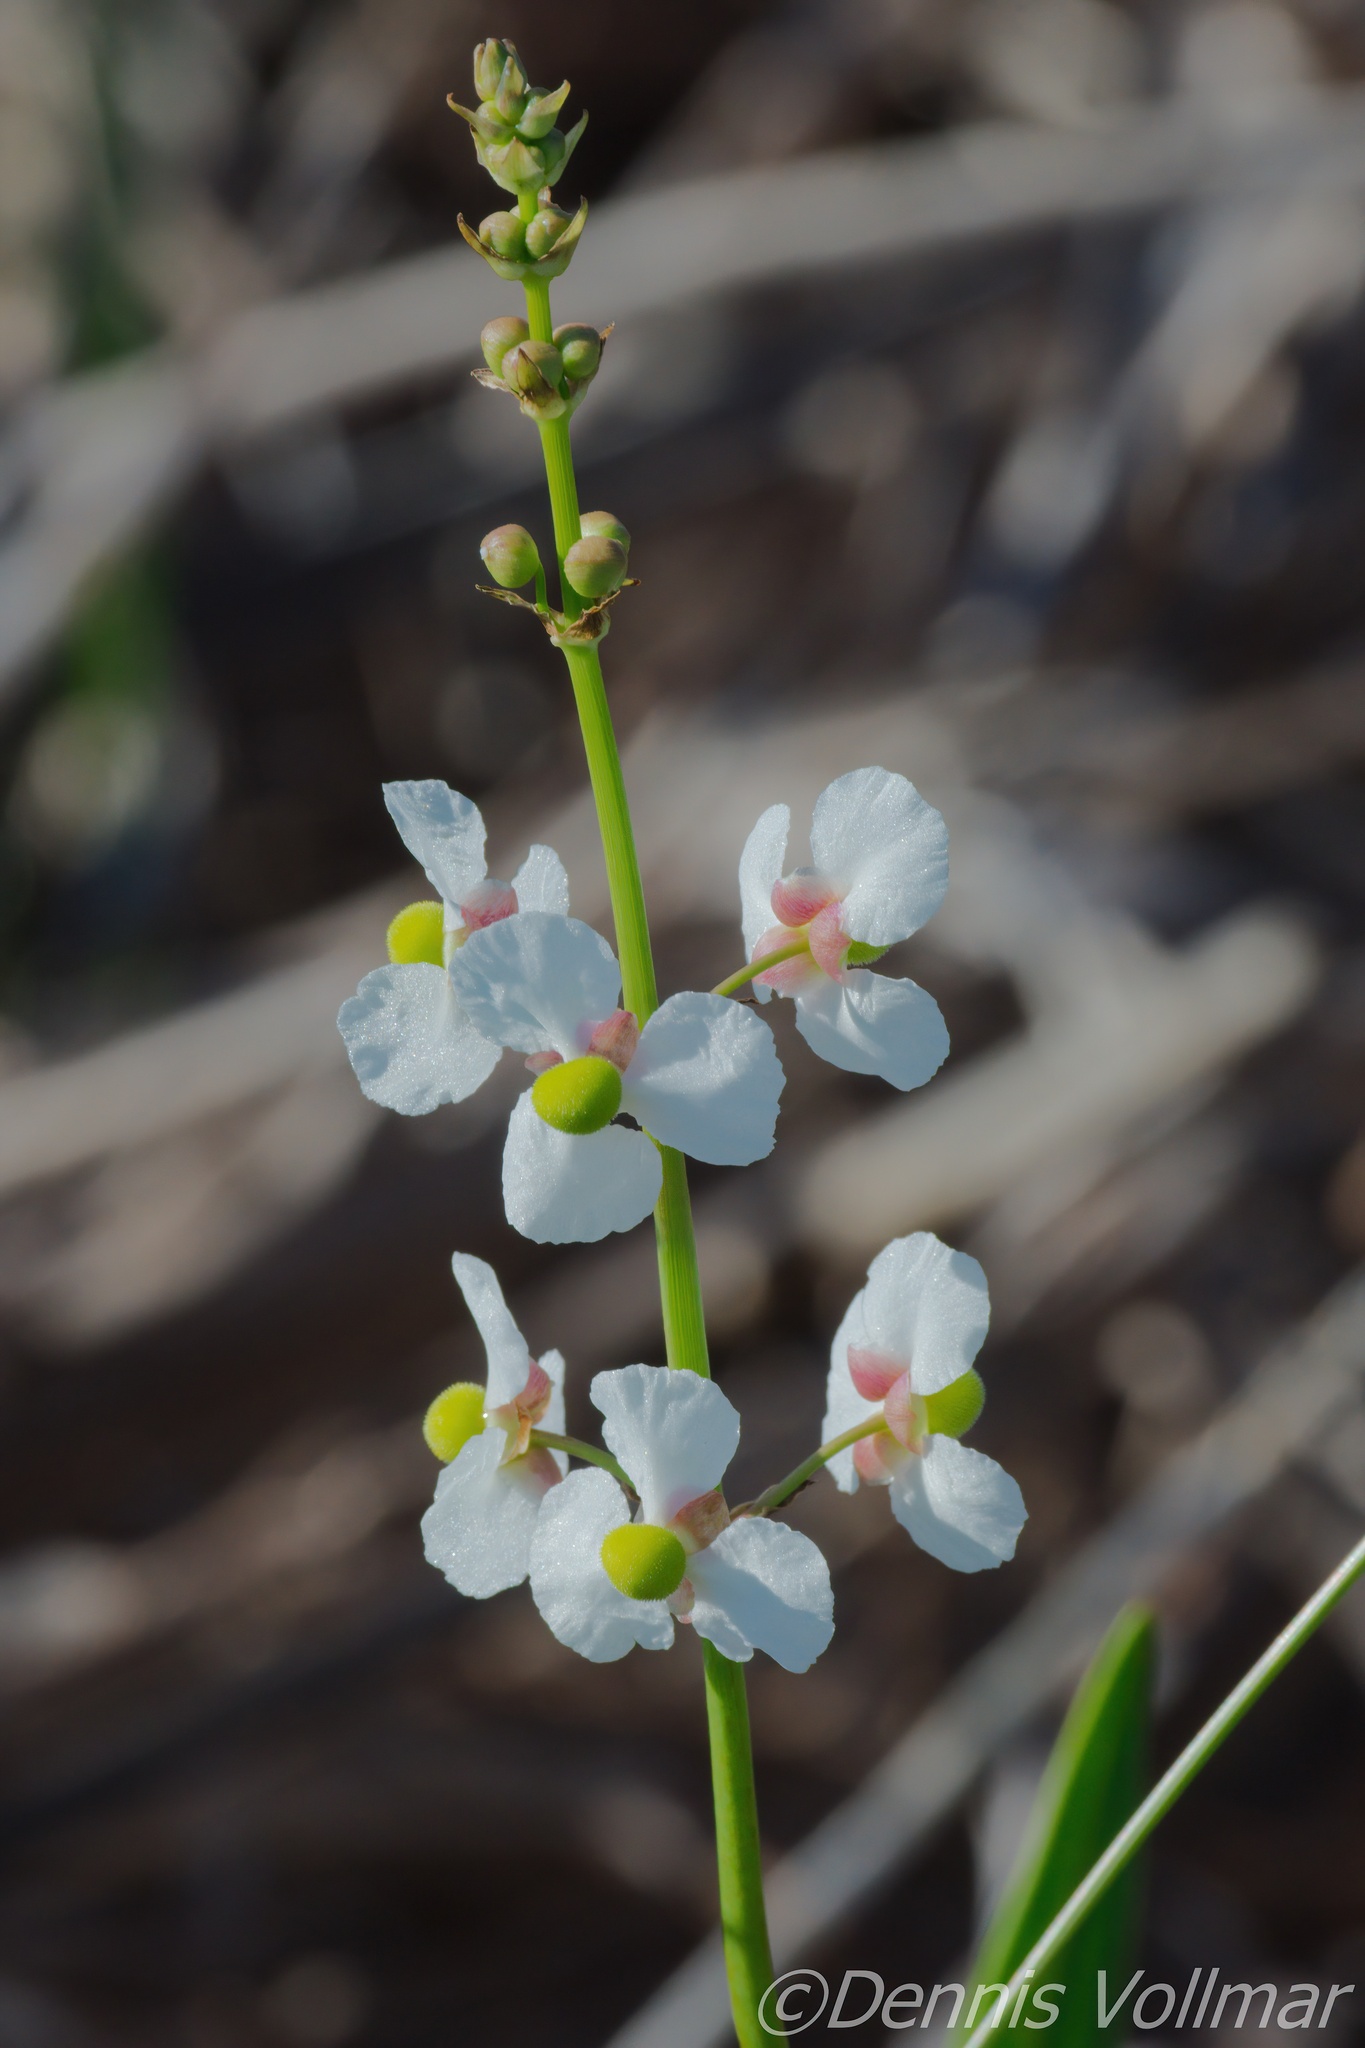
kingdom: Plantae
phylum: Tracheophyta
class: Liliopsida
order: Alismatales
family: Alismataceae
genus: Sagittaria
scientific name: Sagittaria lancifolia
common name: Lance-leaf arrowhead
